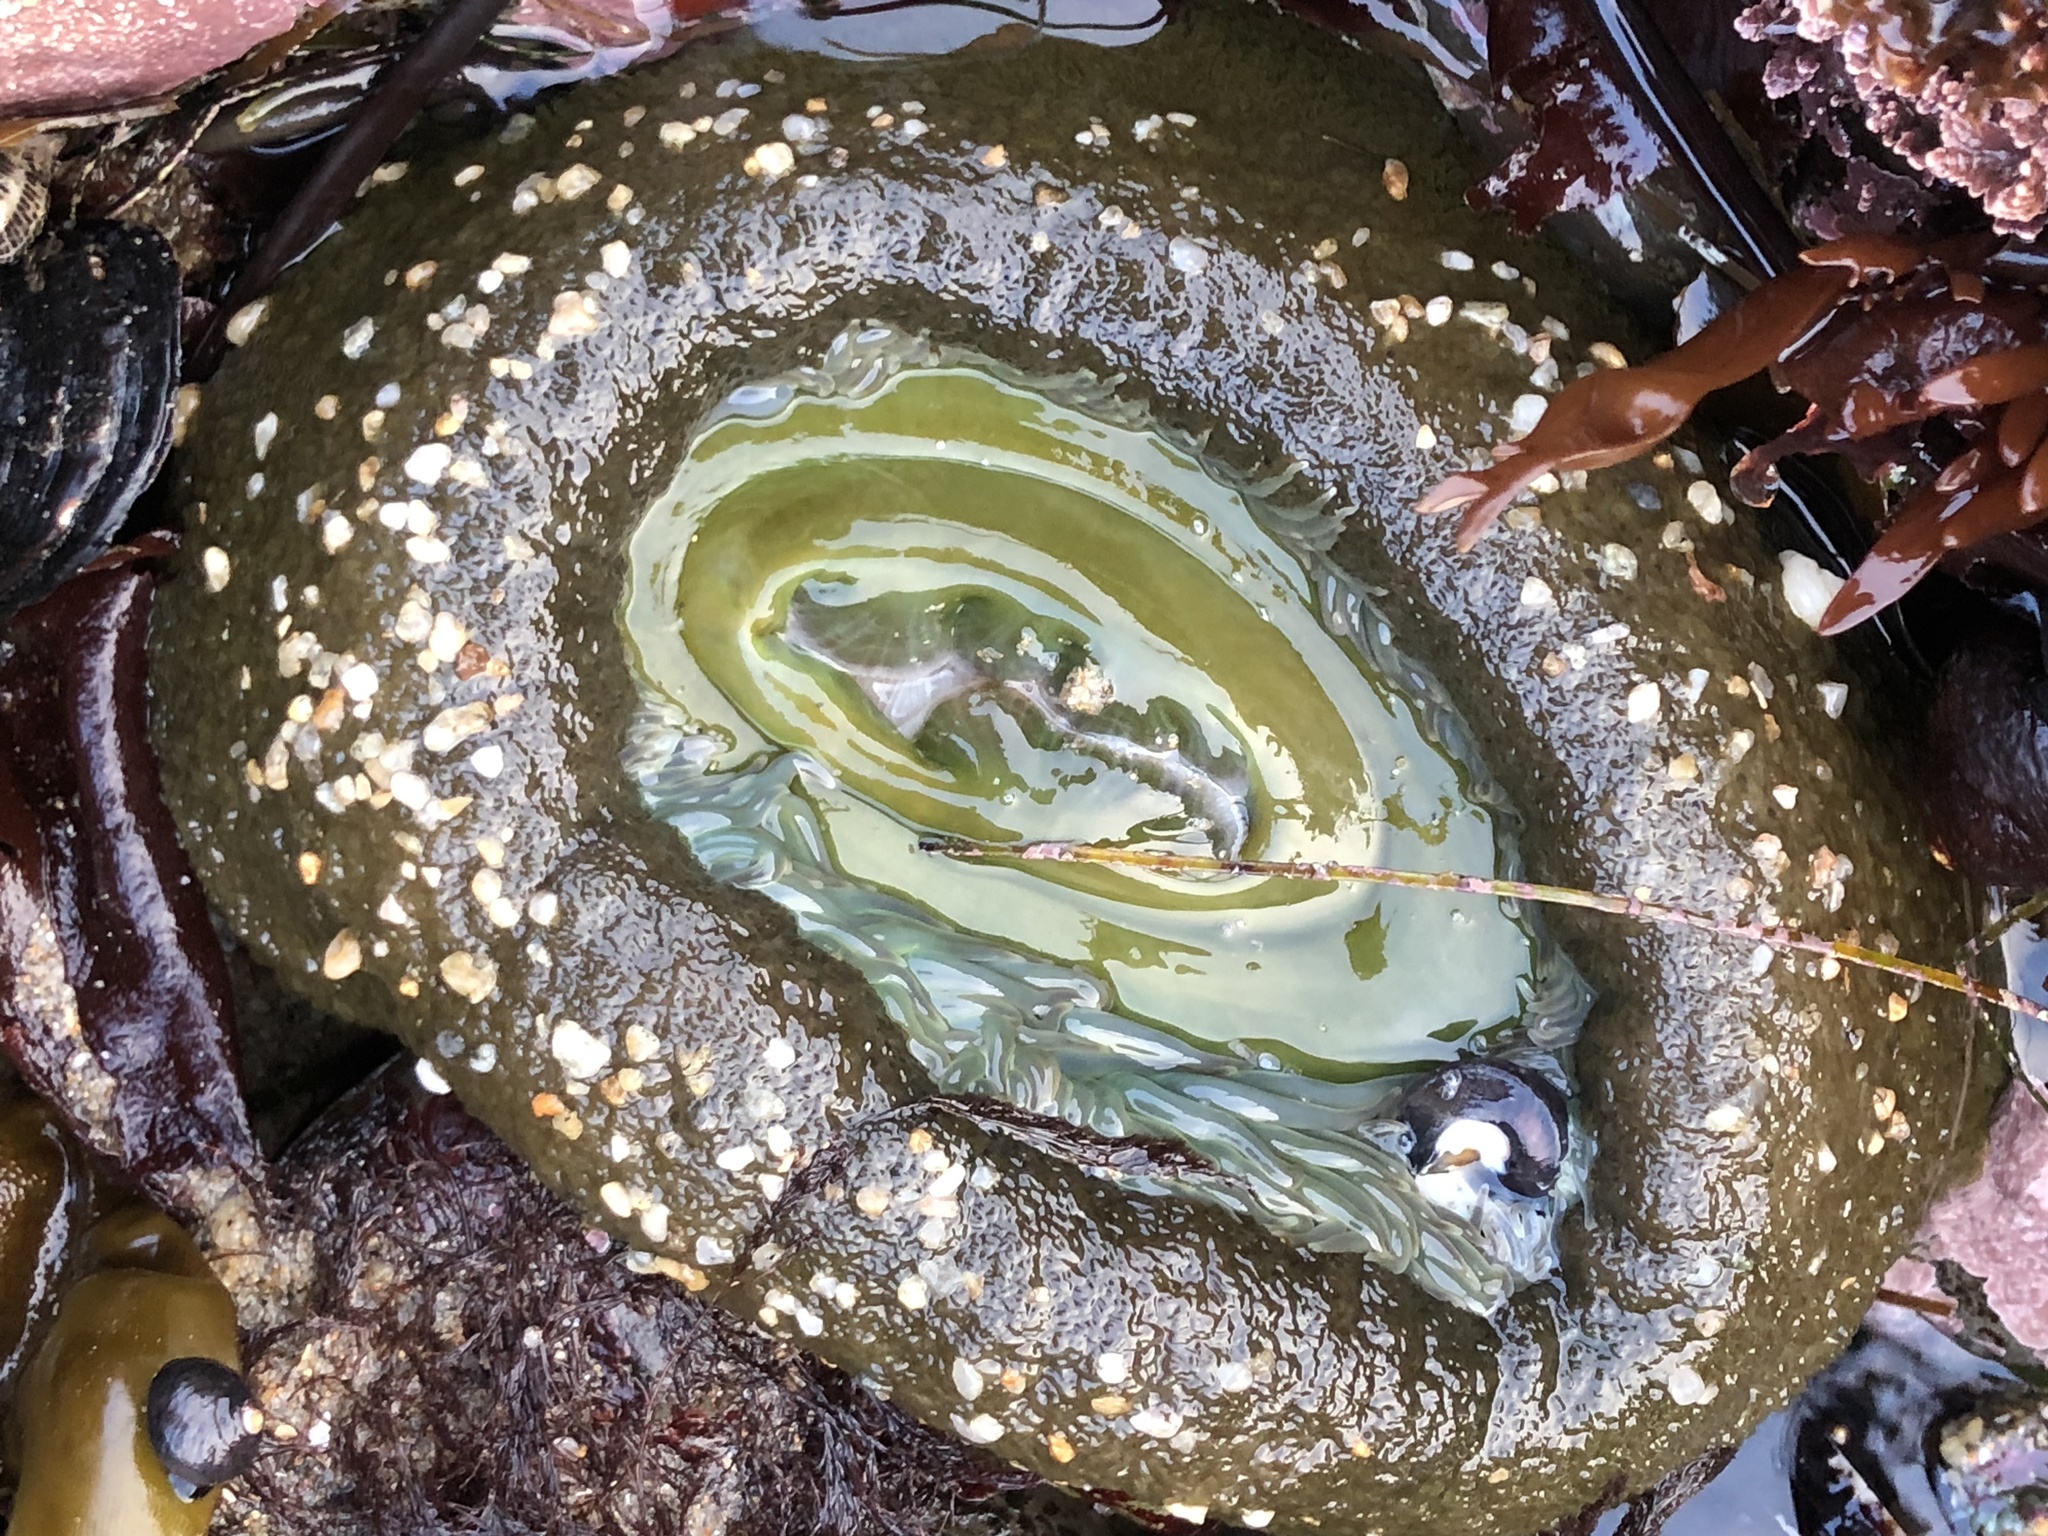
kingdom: Animalia
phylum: Cnidaria
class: Anthozoa
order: Actiniaria
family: Actiniidae
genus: Anthopleura
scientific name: Anthopleura xanthogrammica
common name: Giant green anemone
